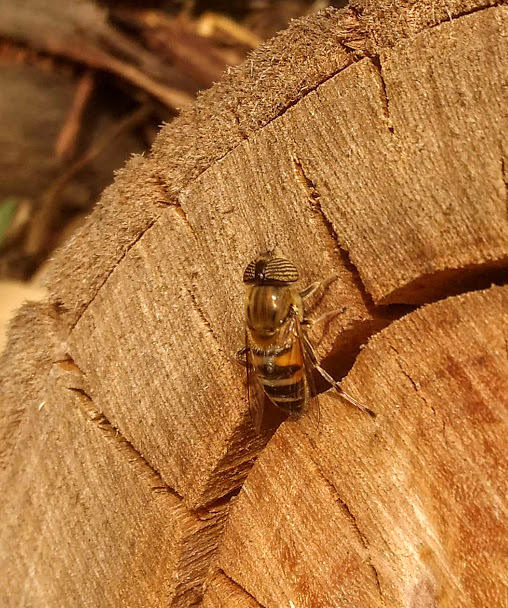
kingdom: Animalia
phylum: Arthropoda
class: Insecta
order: Diptera
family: Syrphidae
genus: Eristalinus
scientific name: Eristalinus taeniops
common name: Syrphid fly
